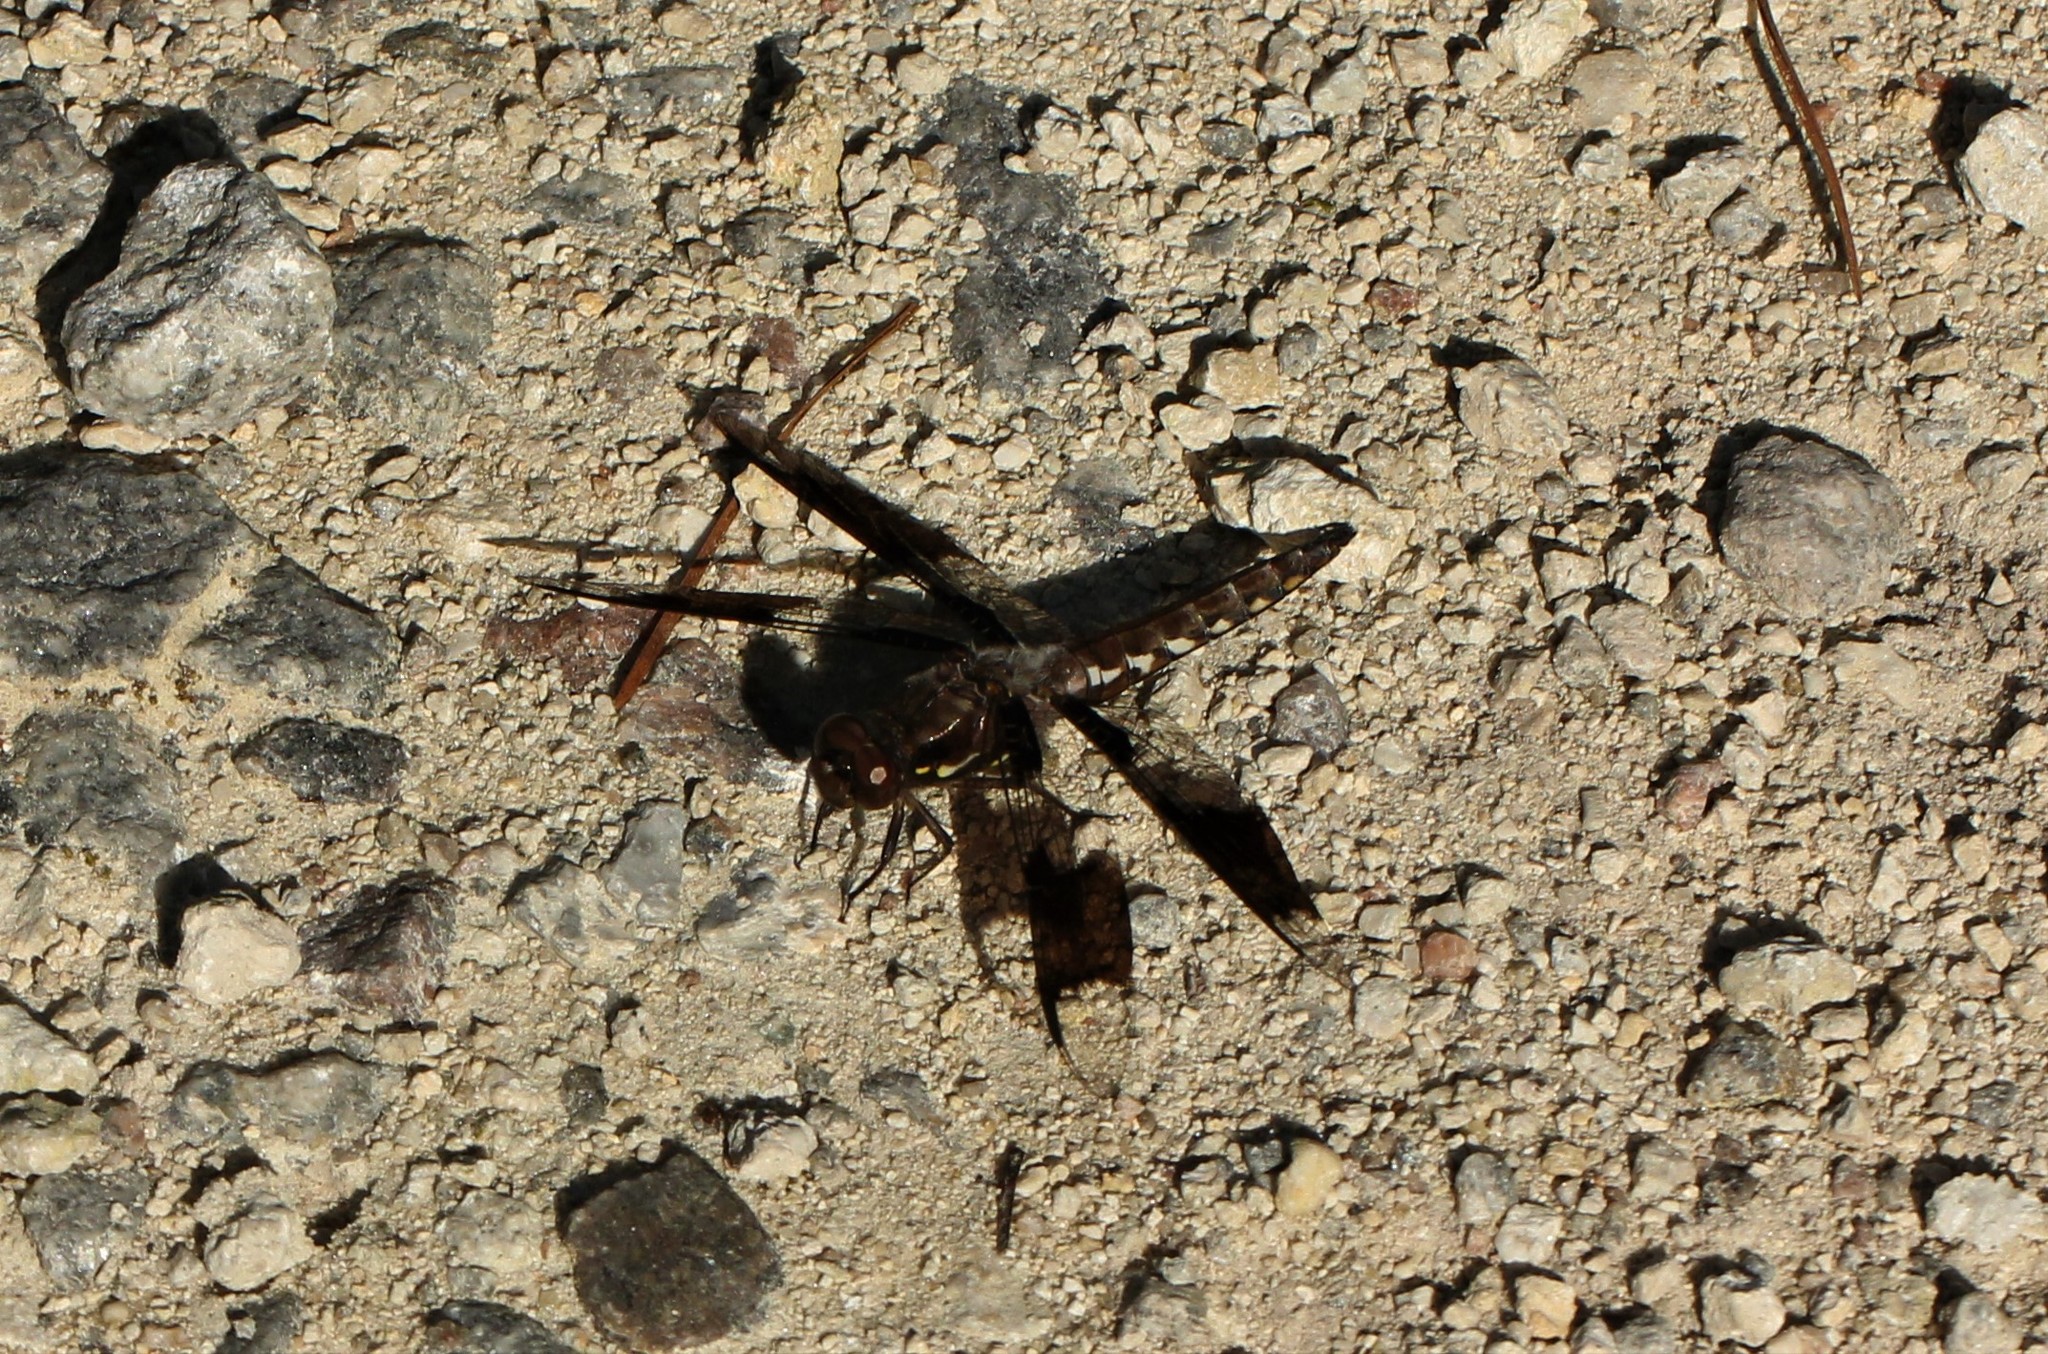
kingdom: Animalia
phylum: Arthropoda
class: Insecta
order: Odonata
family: Libellulidae
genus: Plathemis
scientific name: Plathemis lydia
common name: Common whitetail
